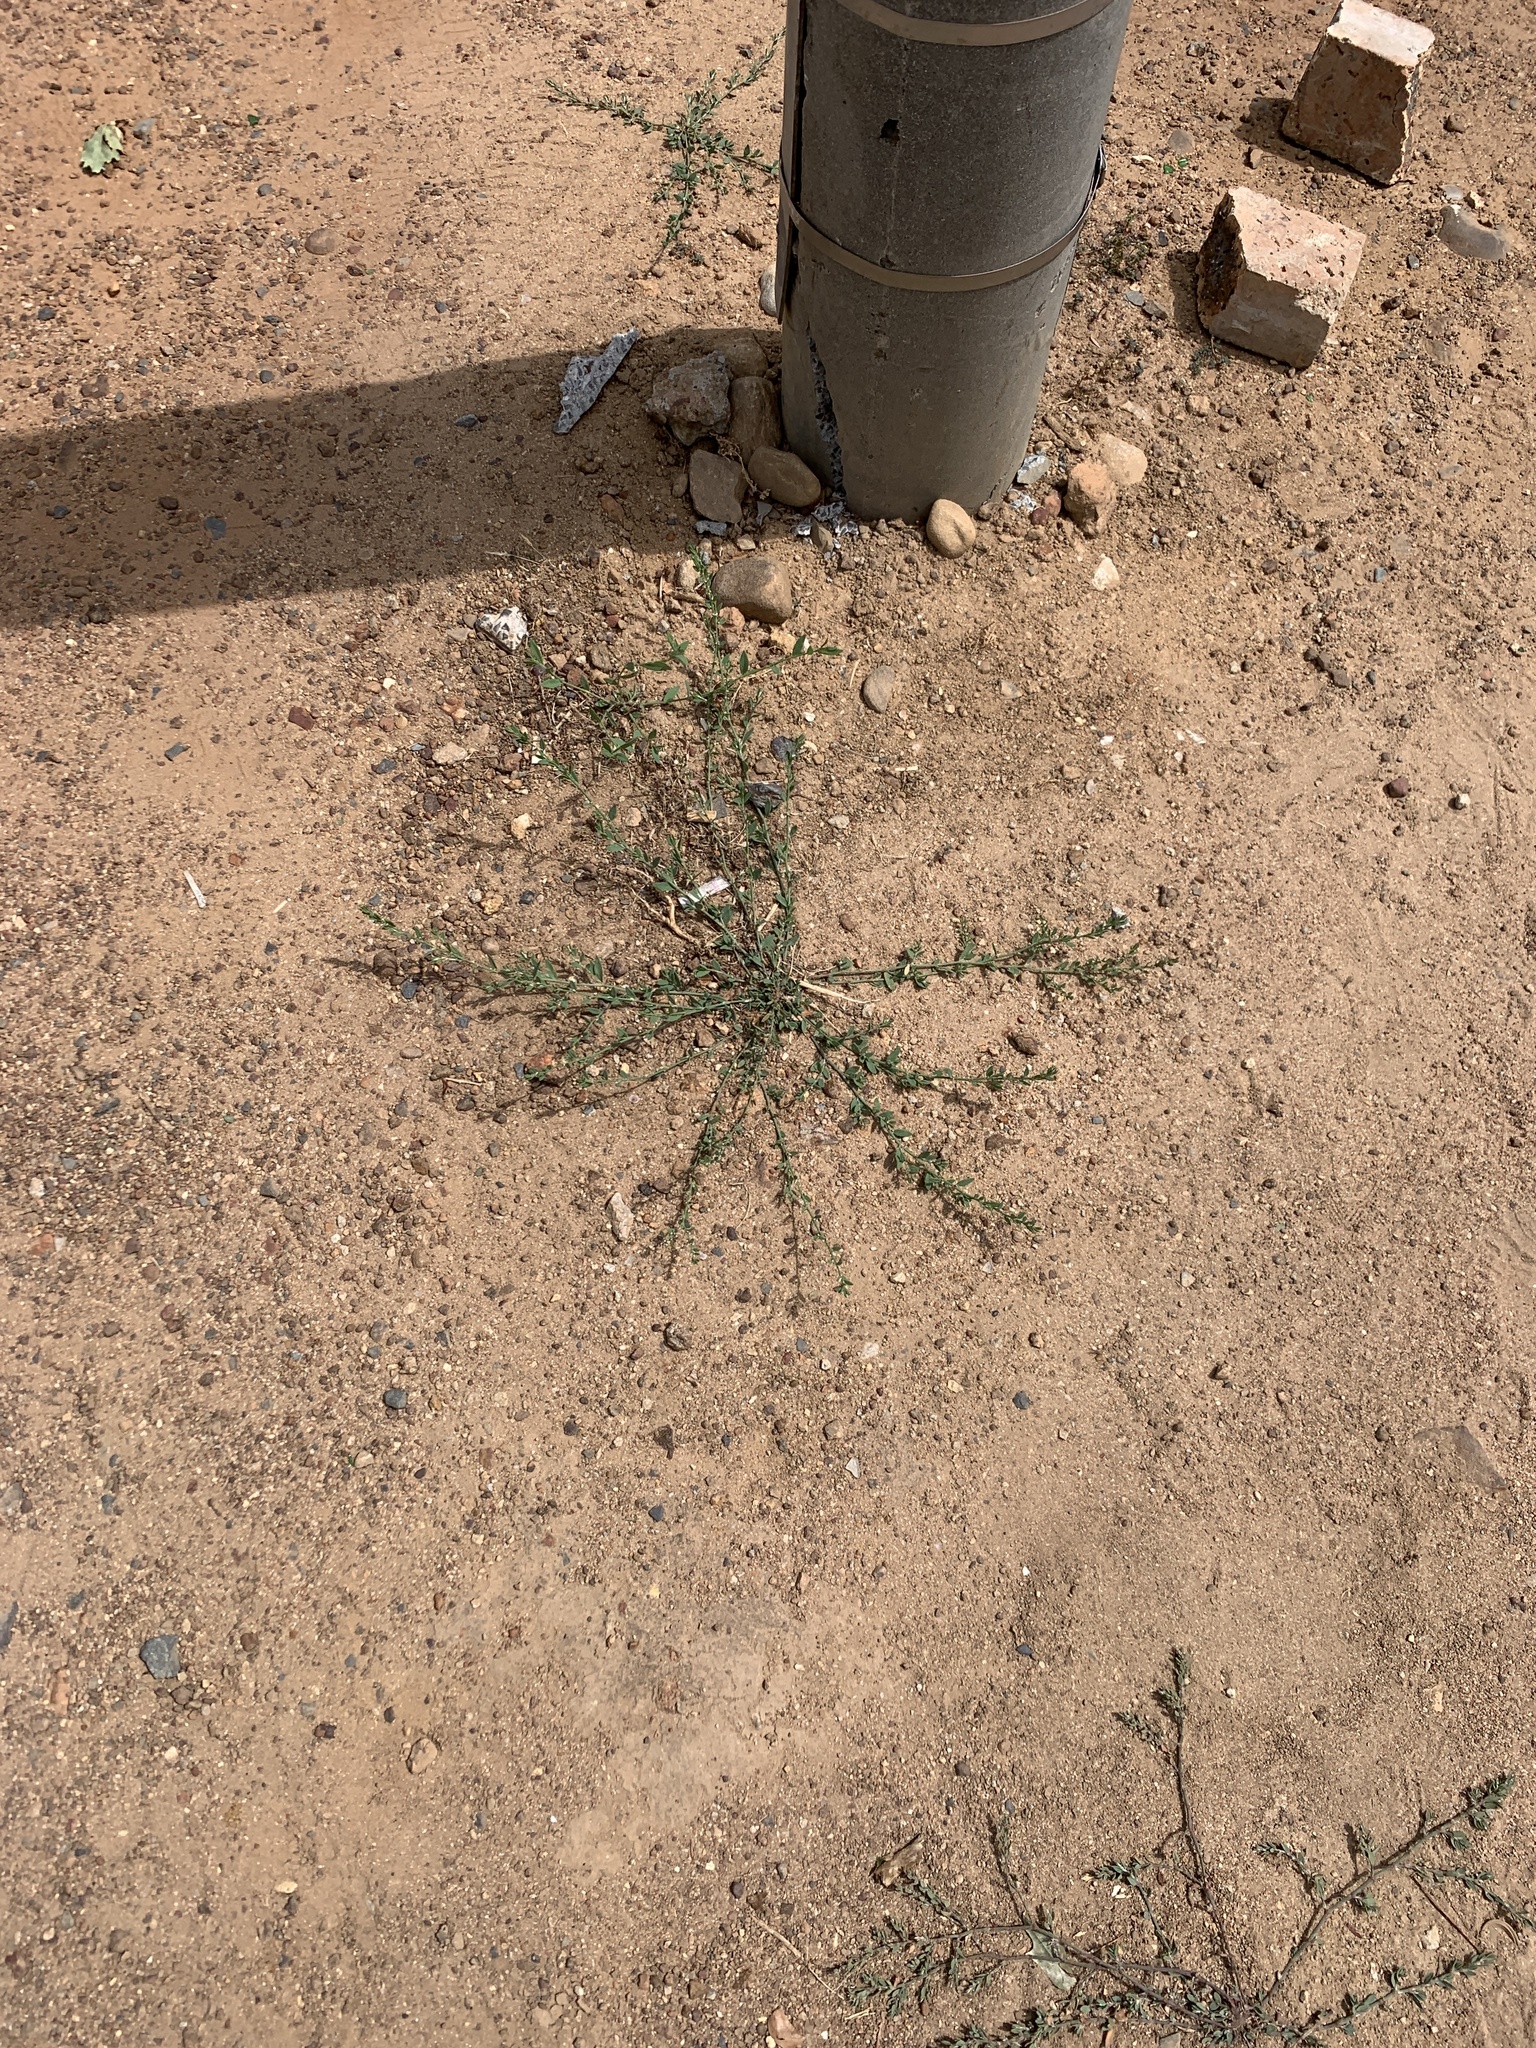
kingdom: Plantae
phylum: Tracheophyta
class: Magnoliopsida
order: Caryophyllales
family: Polygonaceae
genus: Polygonum
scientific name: Polygonum aviculare
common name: Prostrate knotweed
